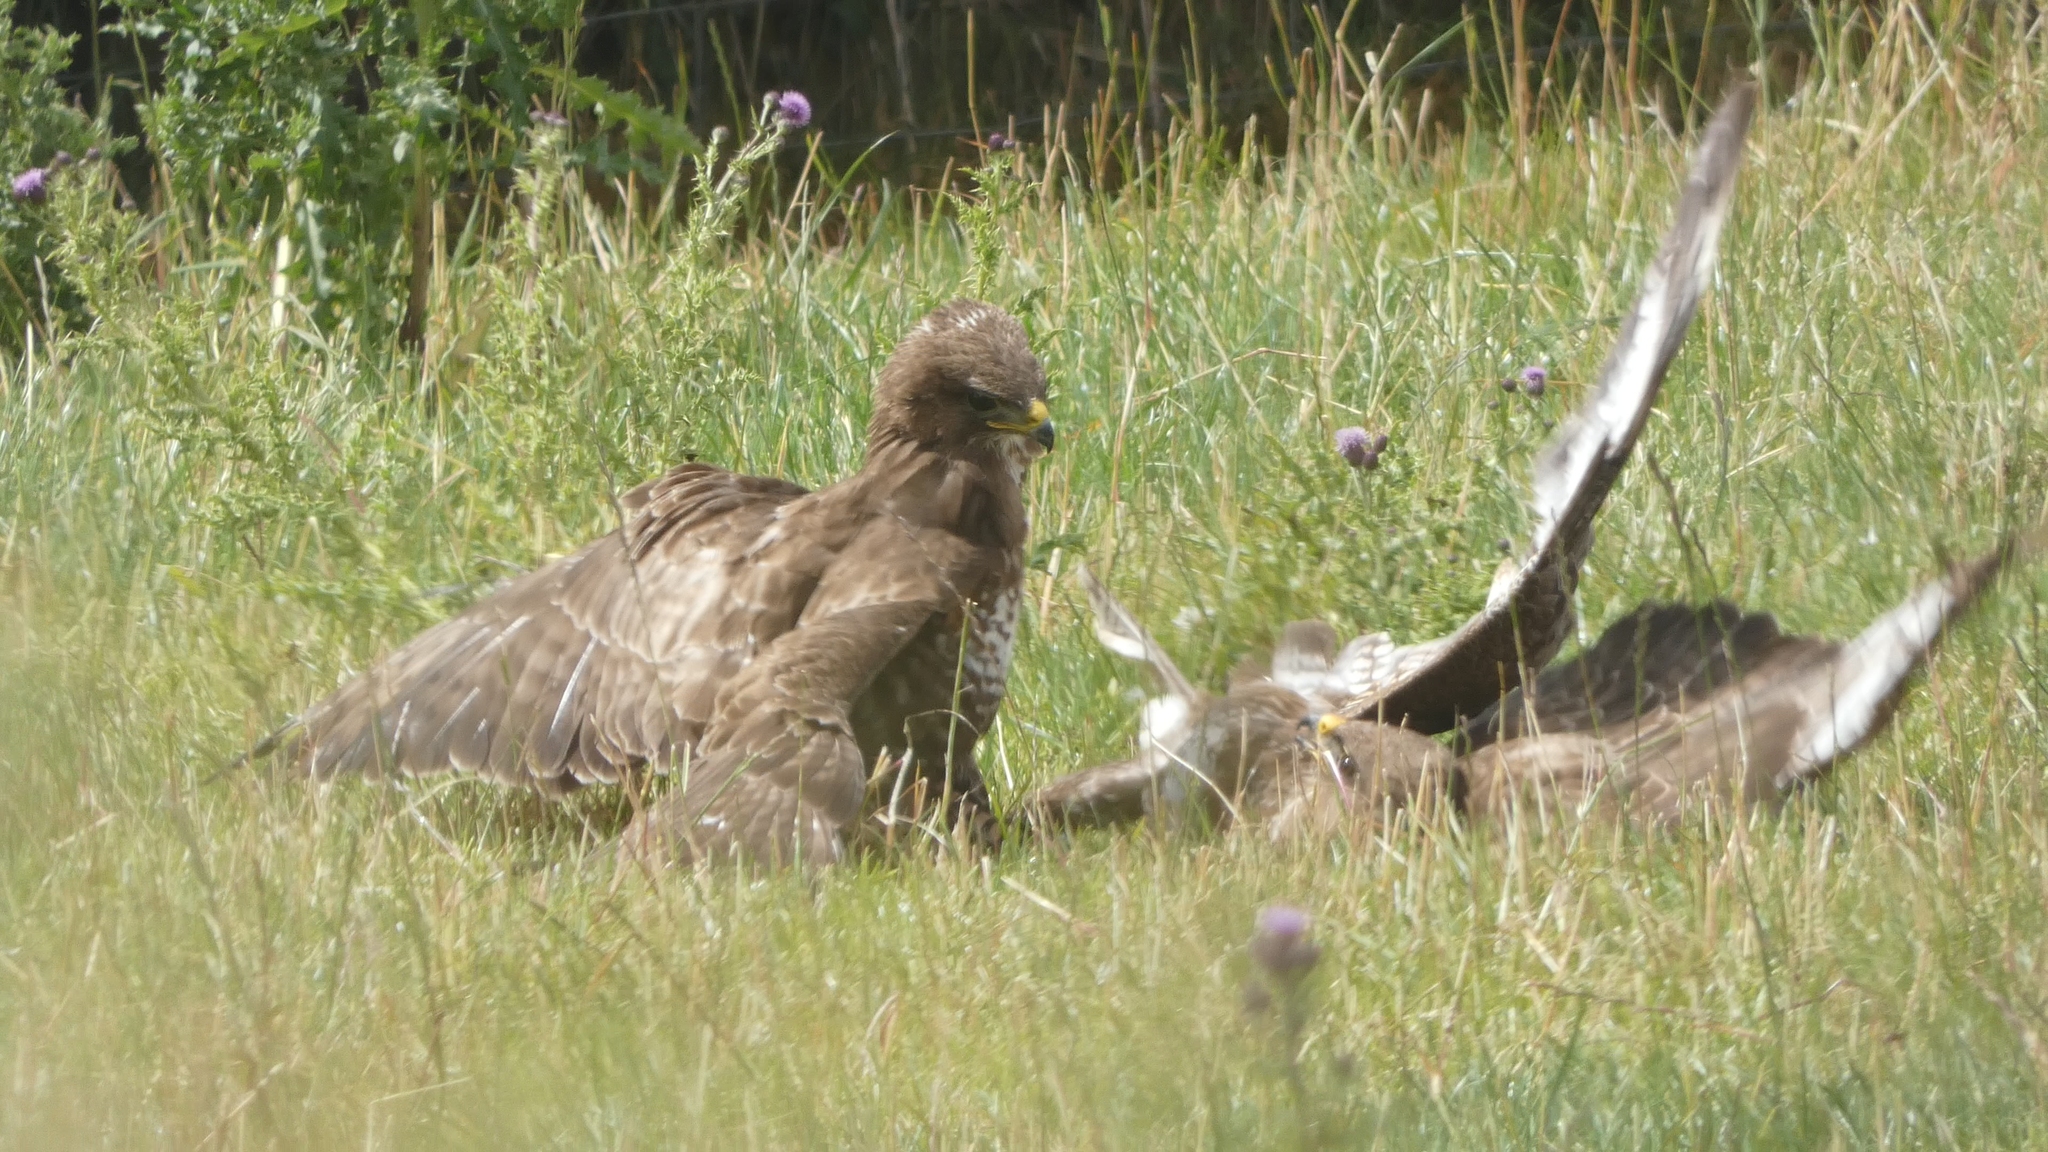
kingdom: Animalia
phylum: Chordata
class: Aves
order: Accipitriformes
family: Accipitridae
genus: Buteo
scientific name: Buteo buteo
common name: Common buzzard
